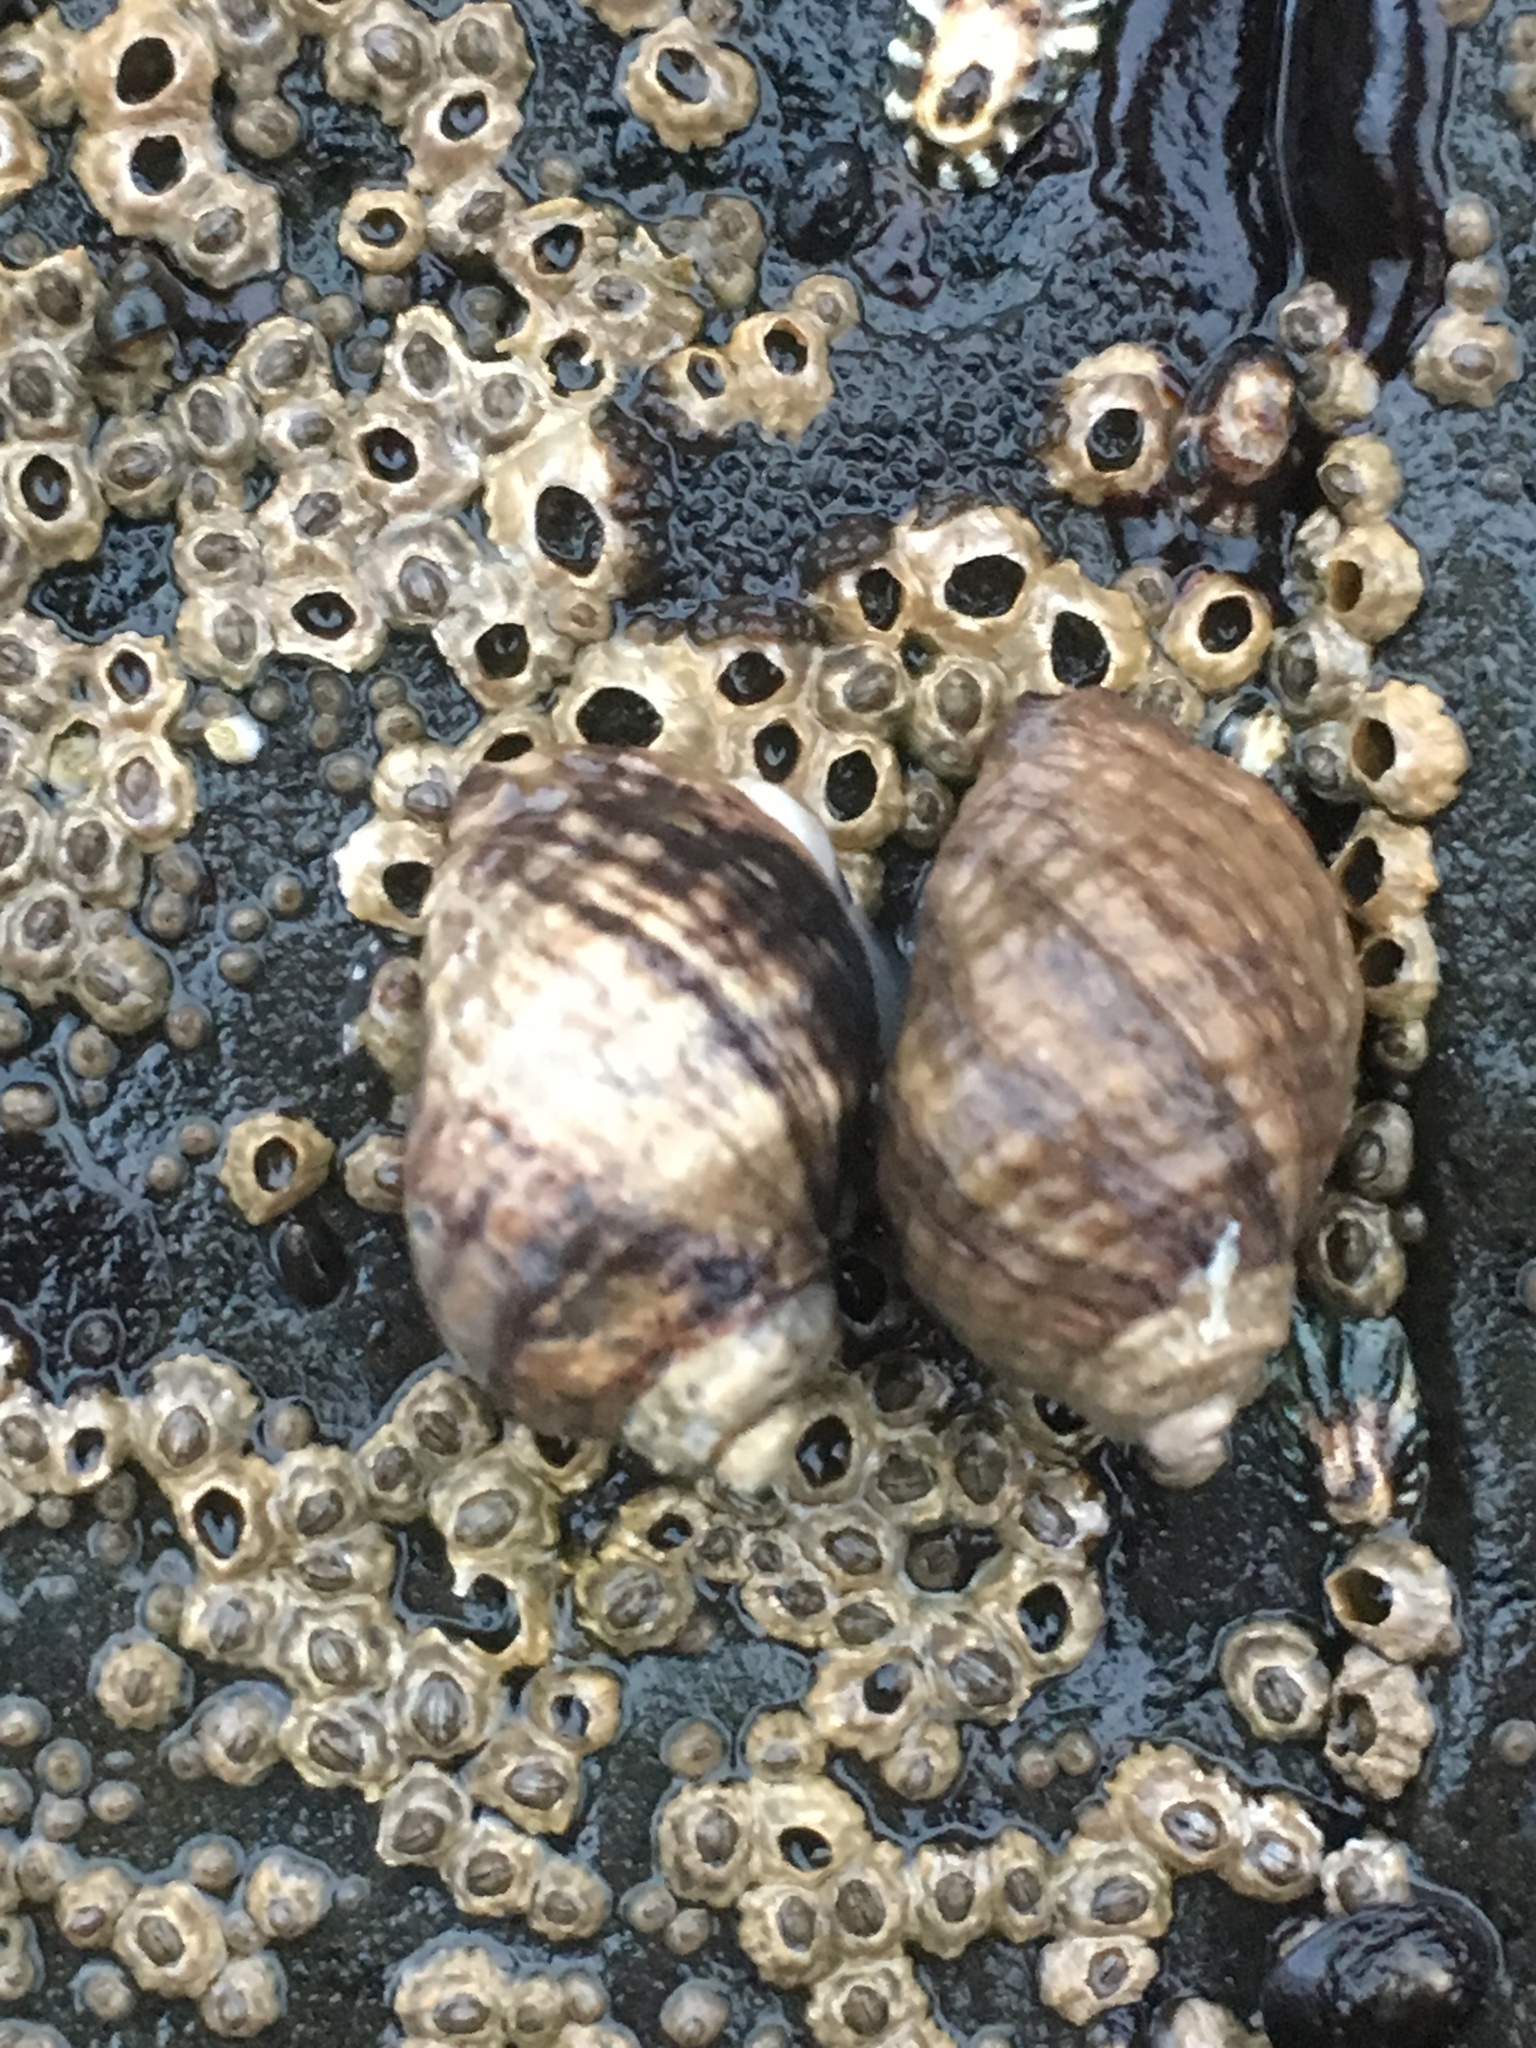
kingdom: Animalia
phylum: Mollusca
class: Gastropoda
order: Neogastropoda
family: Muricidae
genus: Nucella
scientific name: Nucella ostrina
